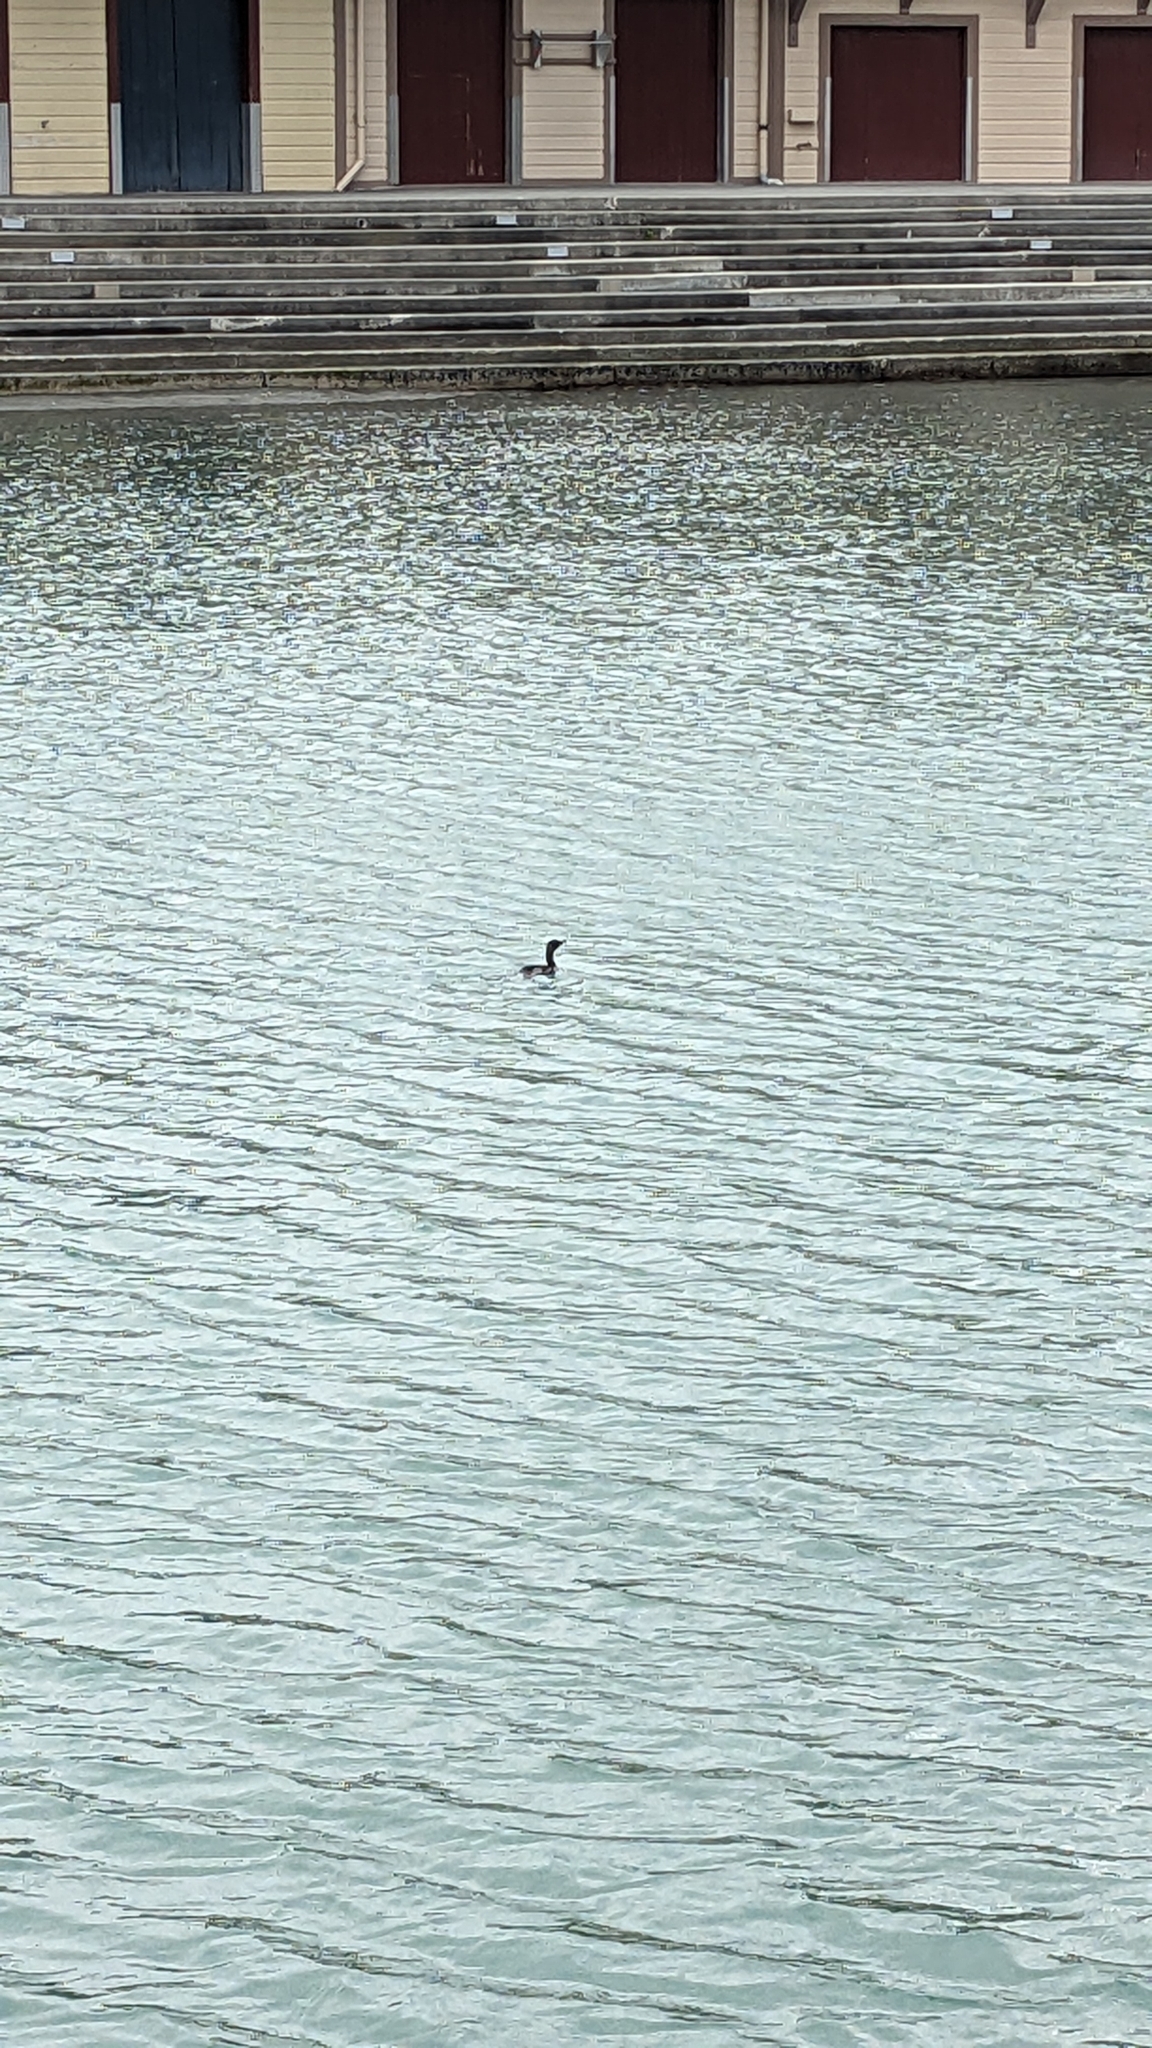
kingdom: Animalia
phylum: Chordata
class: Aves
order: Suliformes
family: Phalacrocoracidae
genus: Microcarbo
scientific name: Microcarbo melanoleucos
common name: Little pied cormorant
